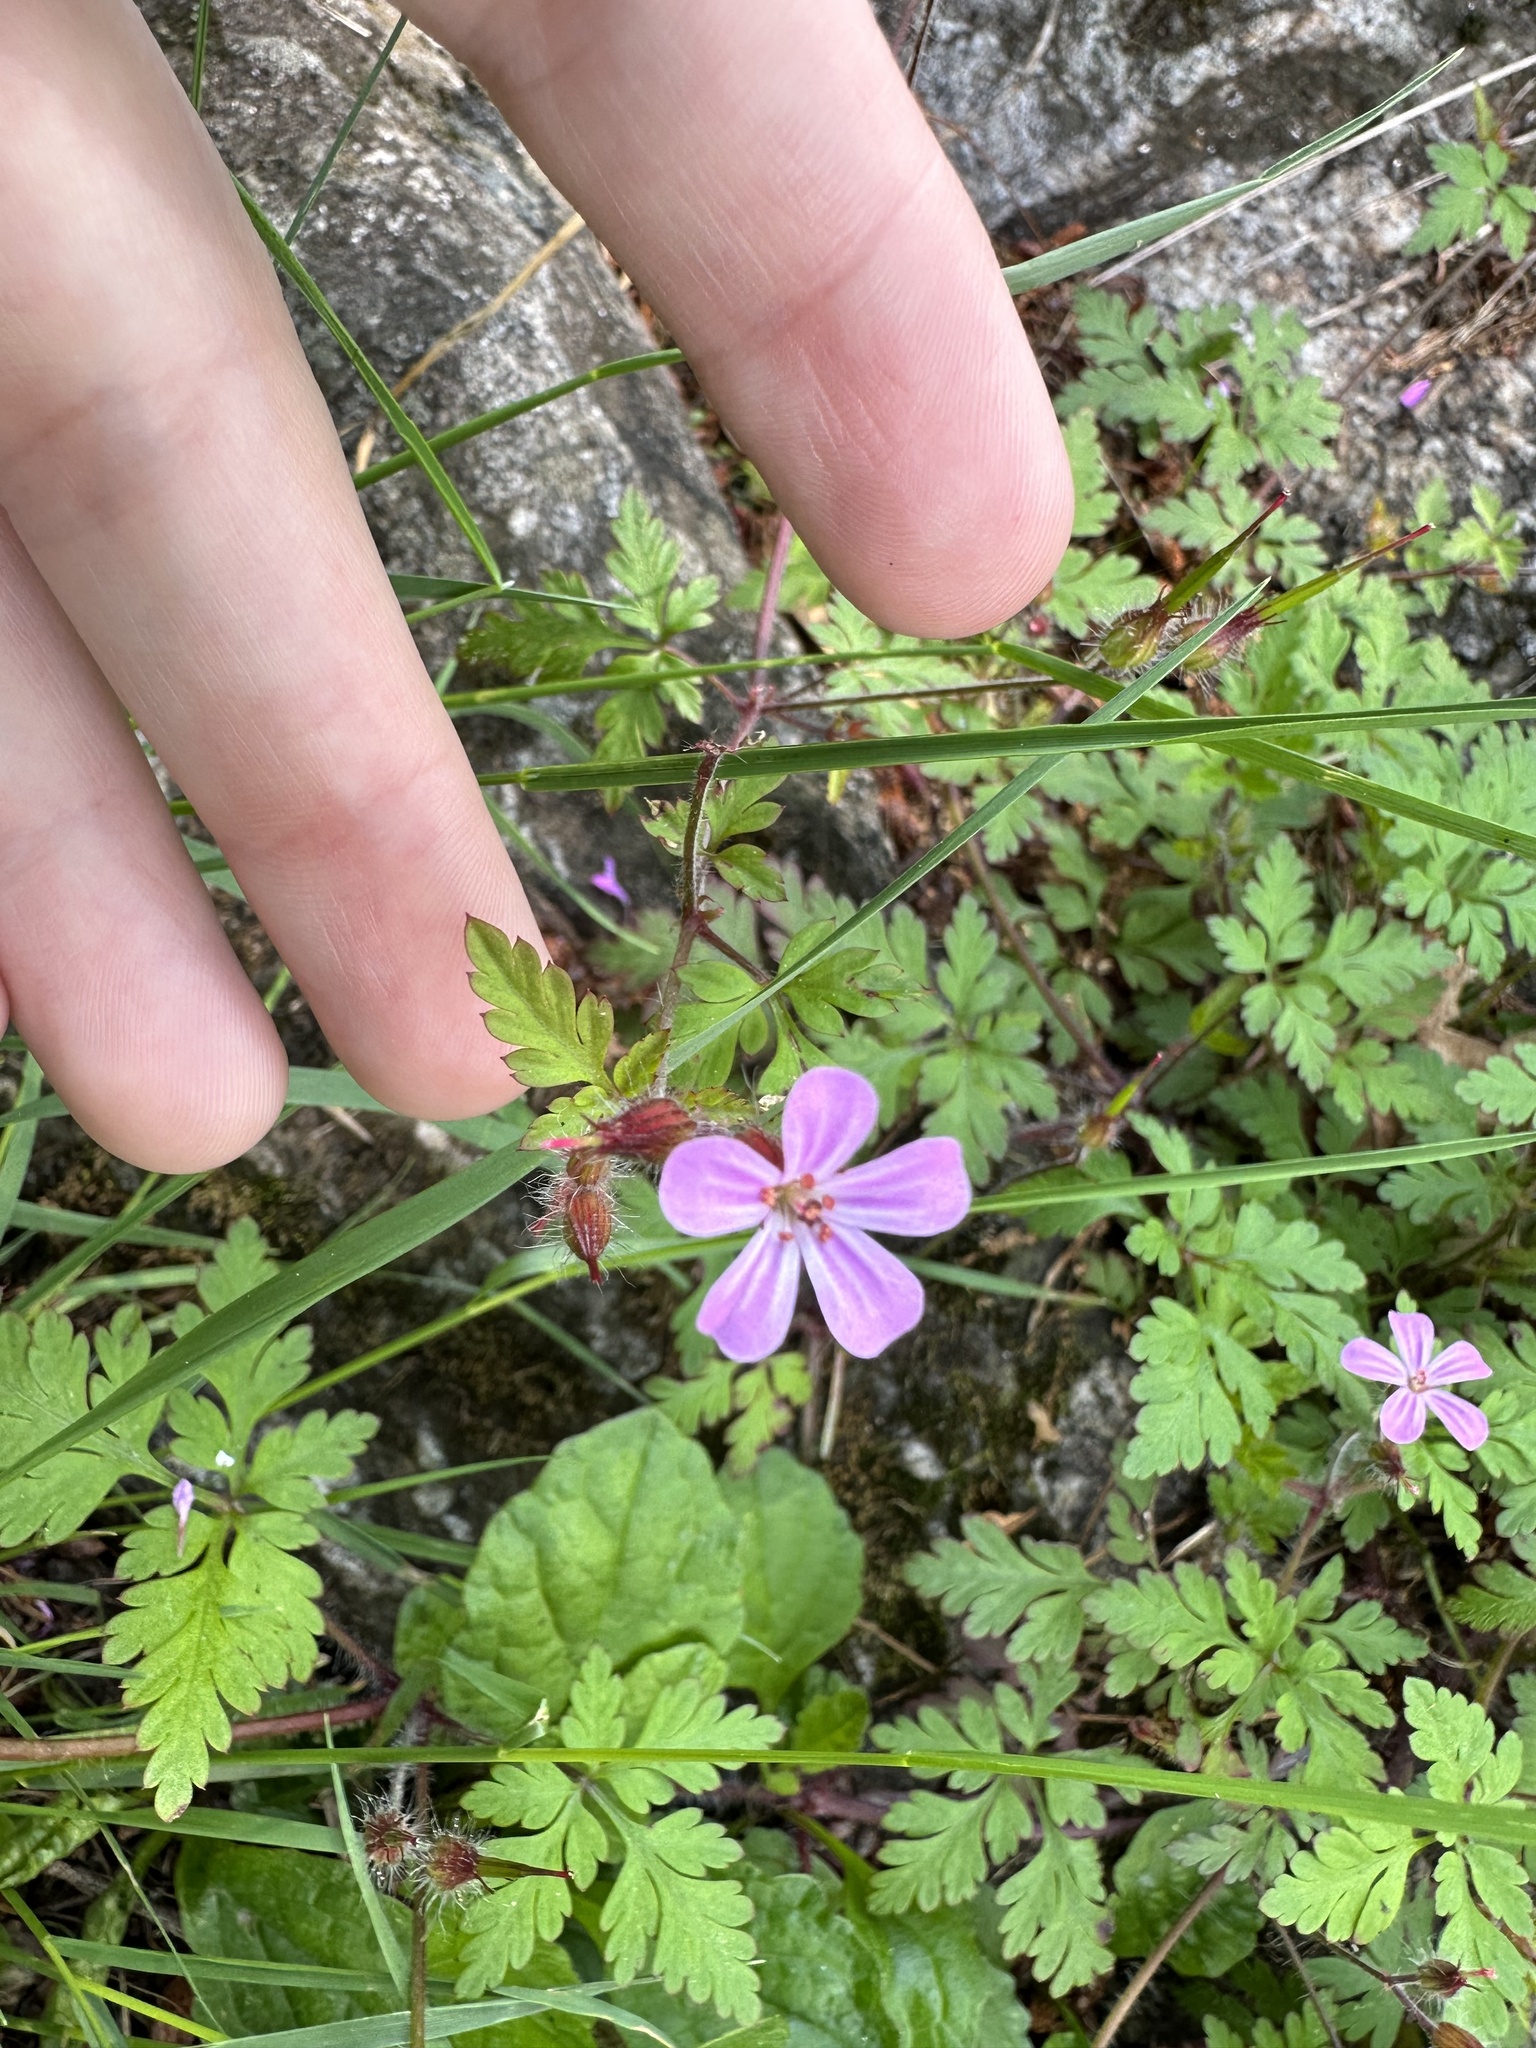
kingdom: Plantae
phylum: Tracheophyta
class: Magnoliopsida
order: Geraniales
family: Geraniaceae
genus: Geranium
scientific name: Geranium robertianum
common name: Herb-robert
